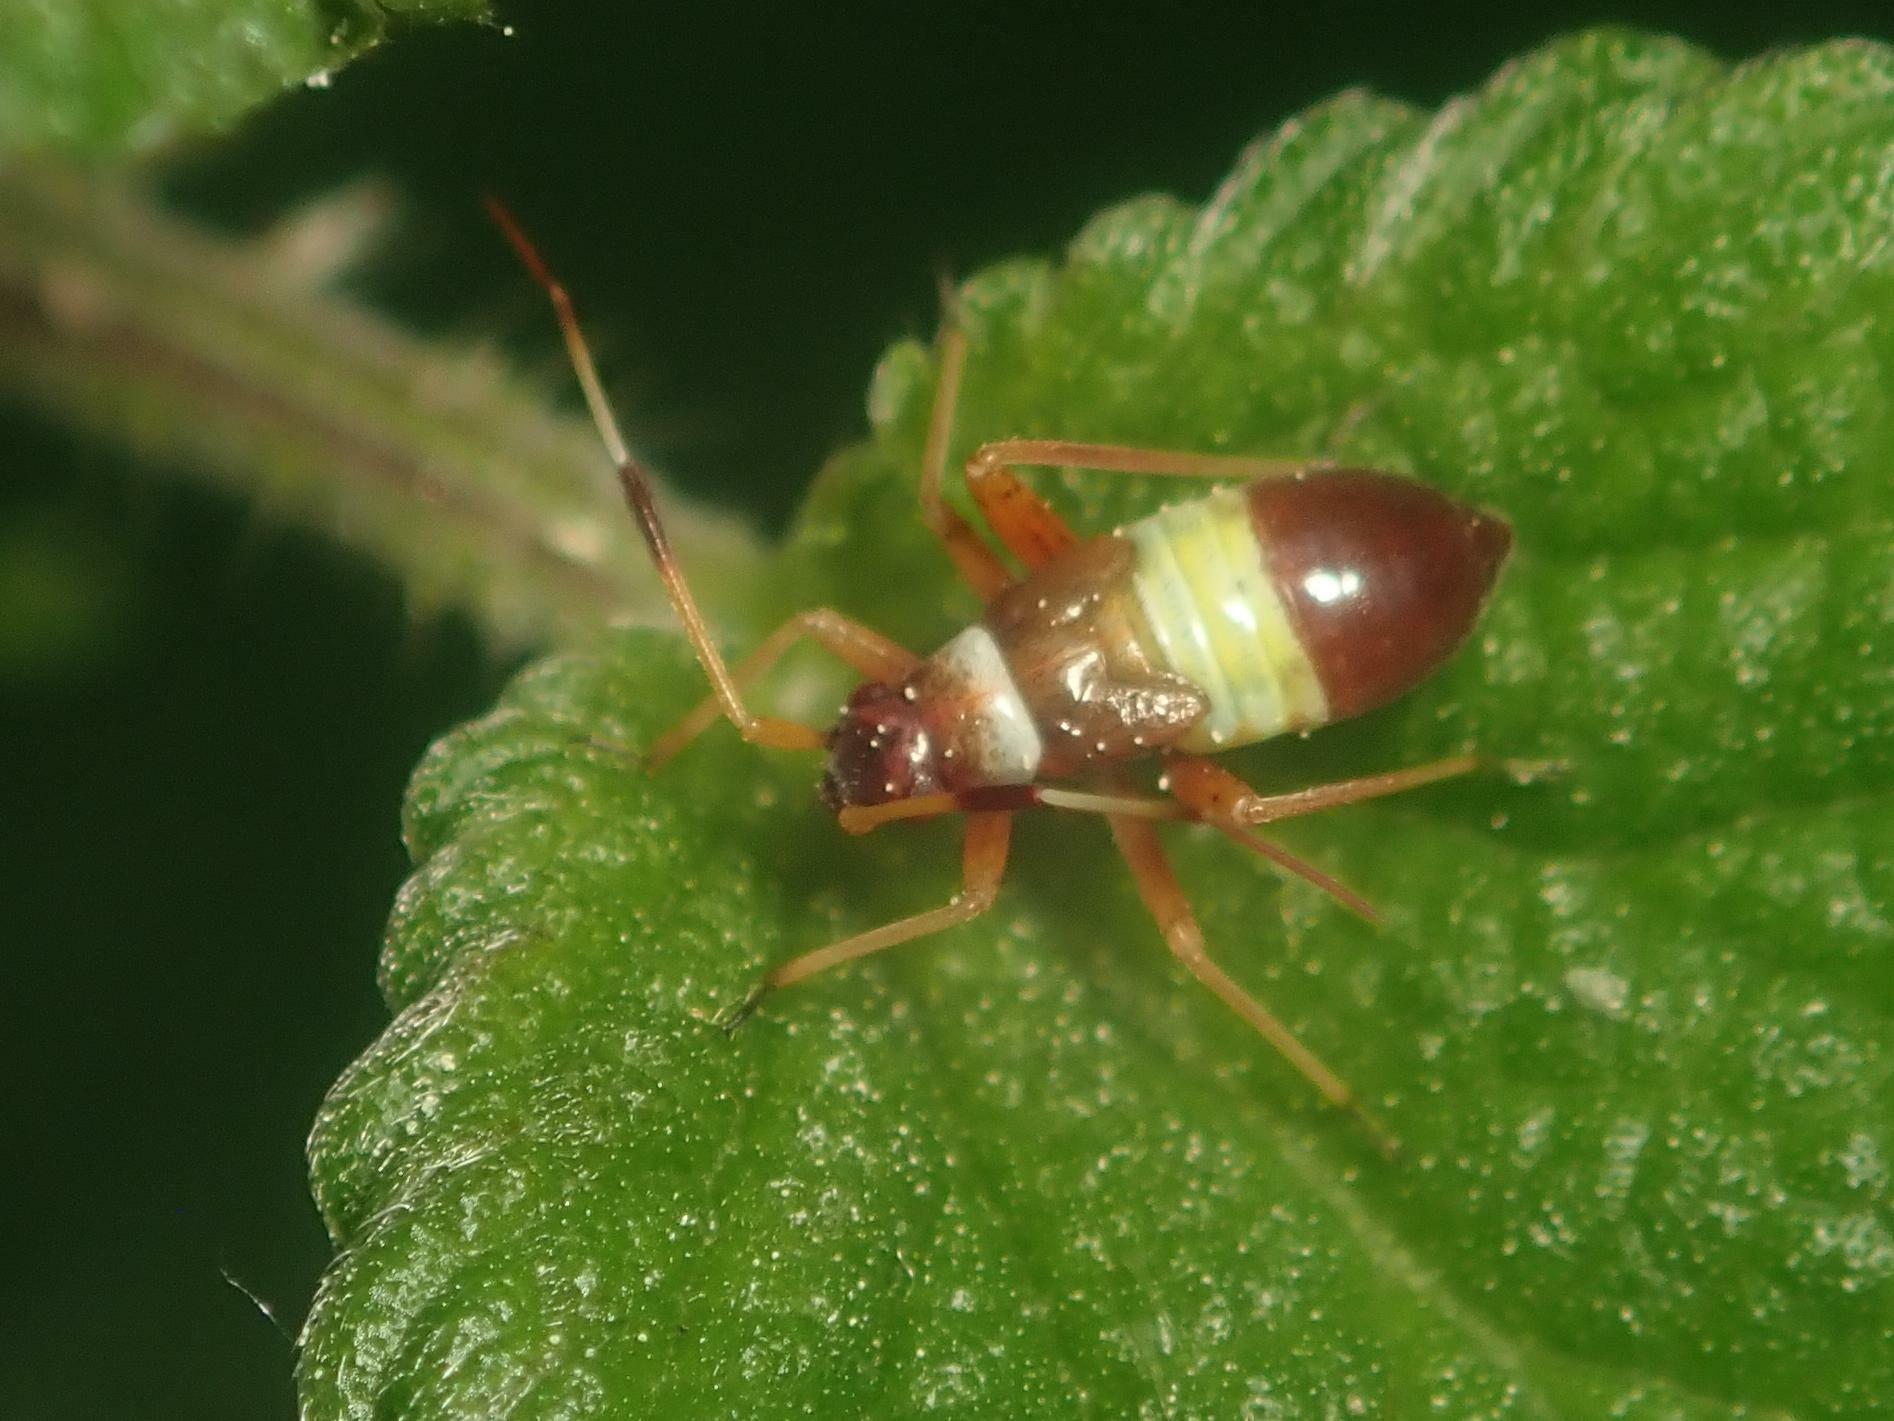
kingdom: Animalia
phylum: Arthropoda
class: Insecta
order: Hemiptera
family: Miridae
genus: Closterotomus
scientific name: Closterotomus biclavatus
